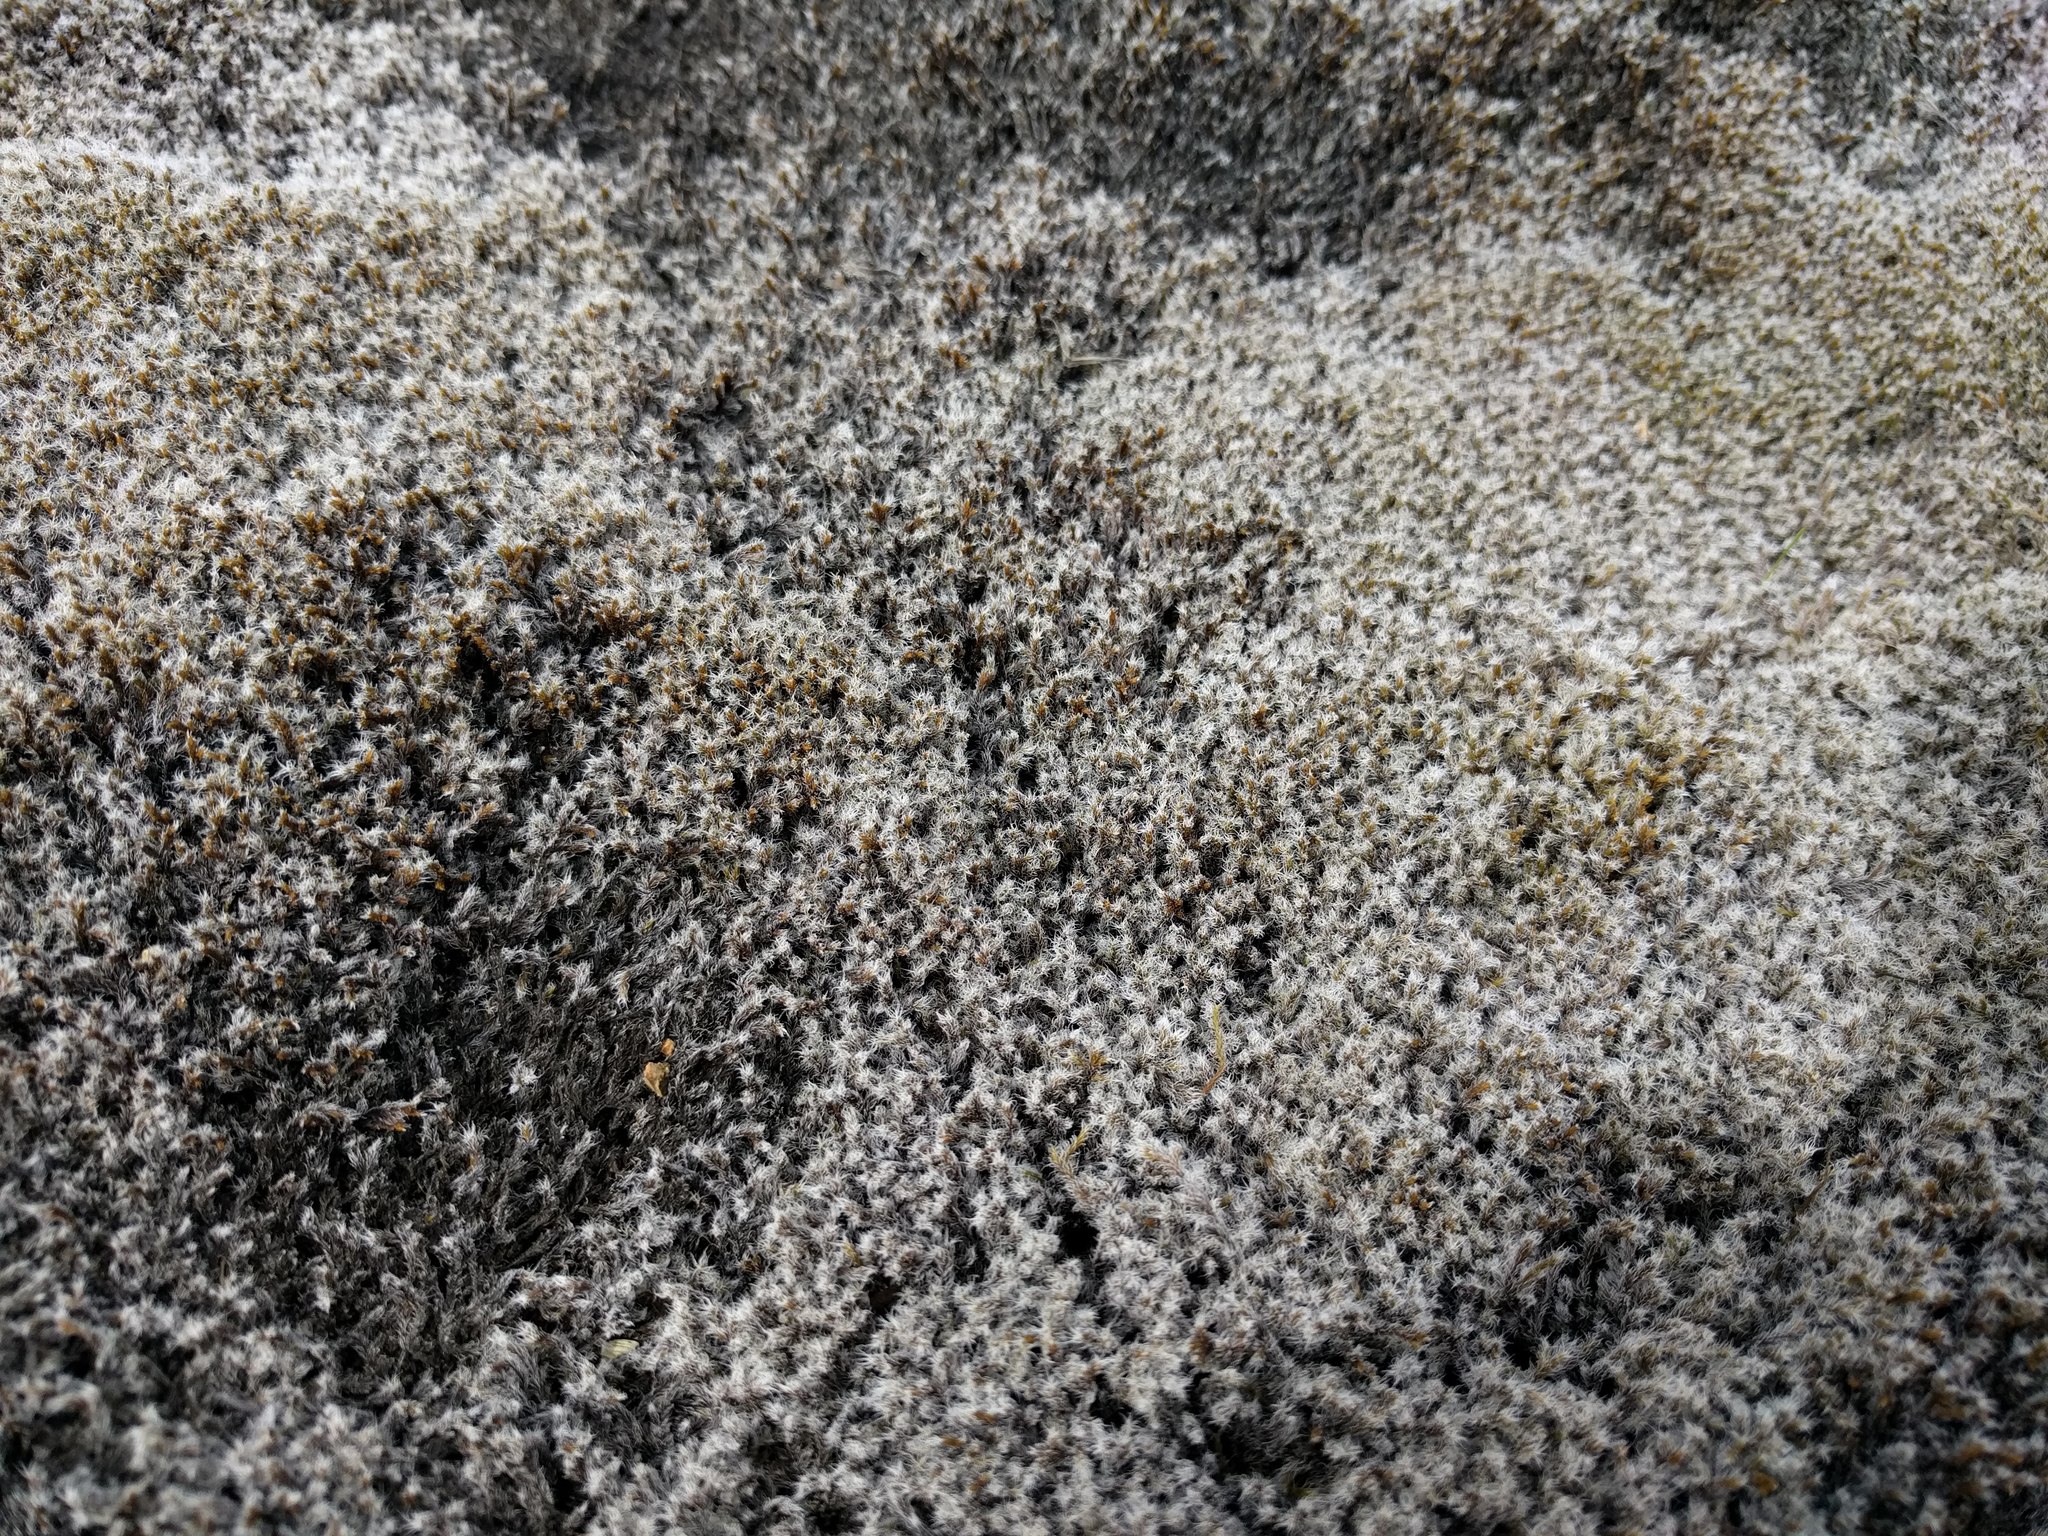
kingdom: Plantae
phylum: Bryophyta
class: Bryopsida
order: Grimmiales
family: Grimmiaceae
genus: Racomitrium
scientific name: Racomitrium lanuginosum
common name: Hoary rock moss
